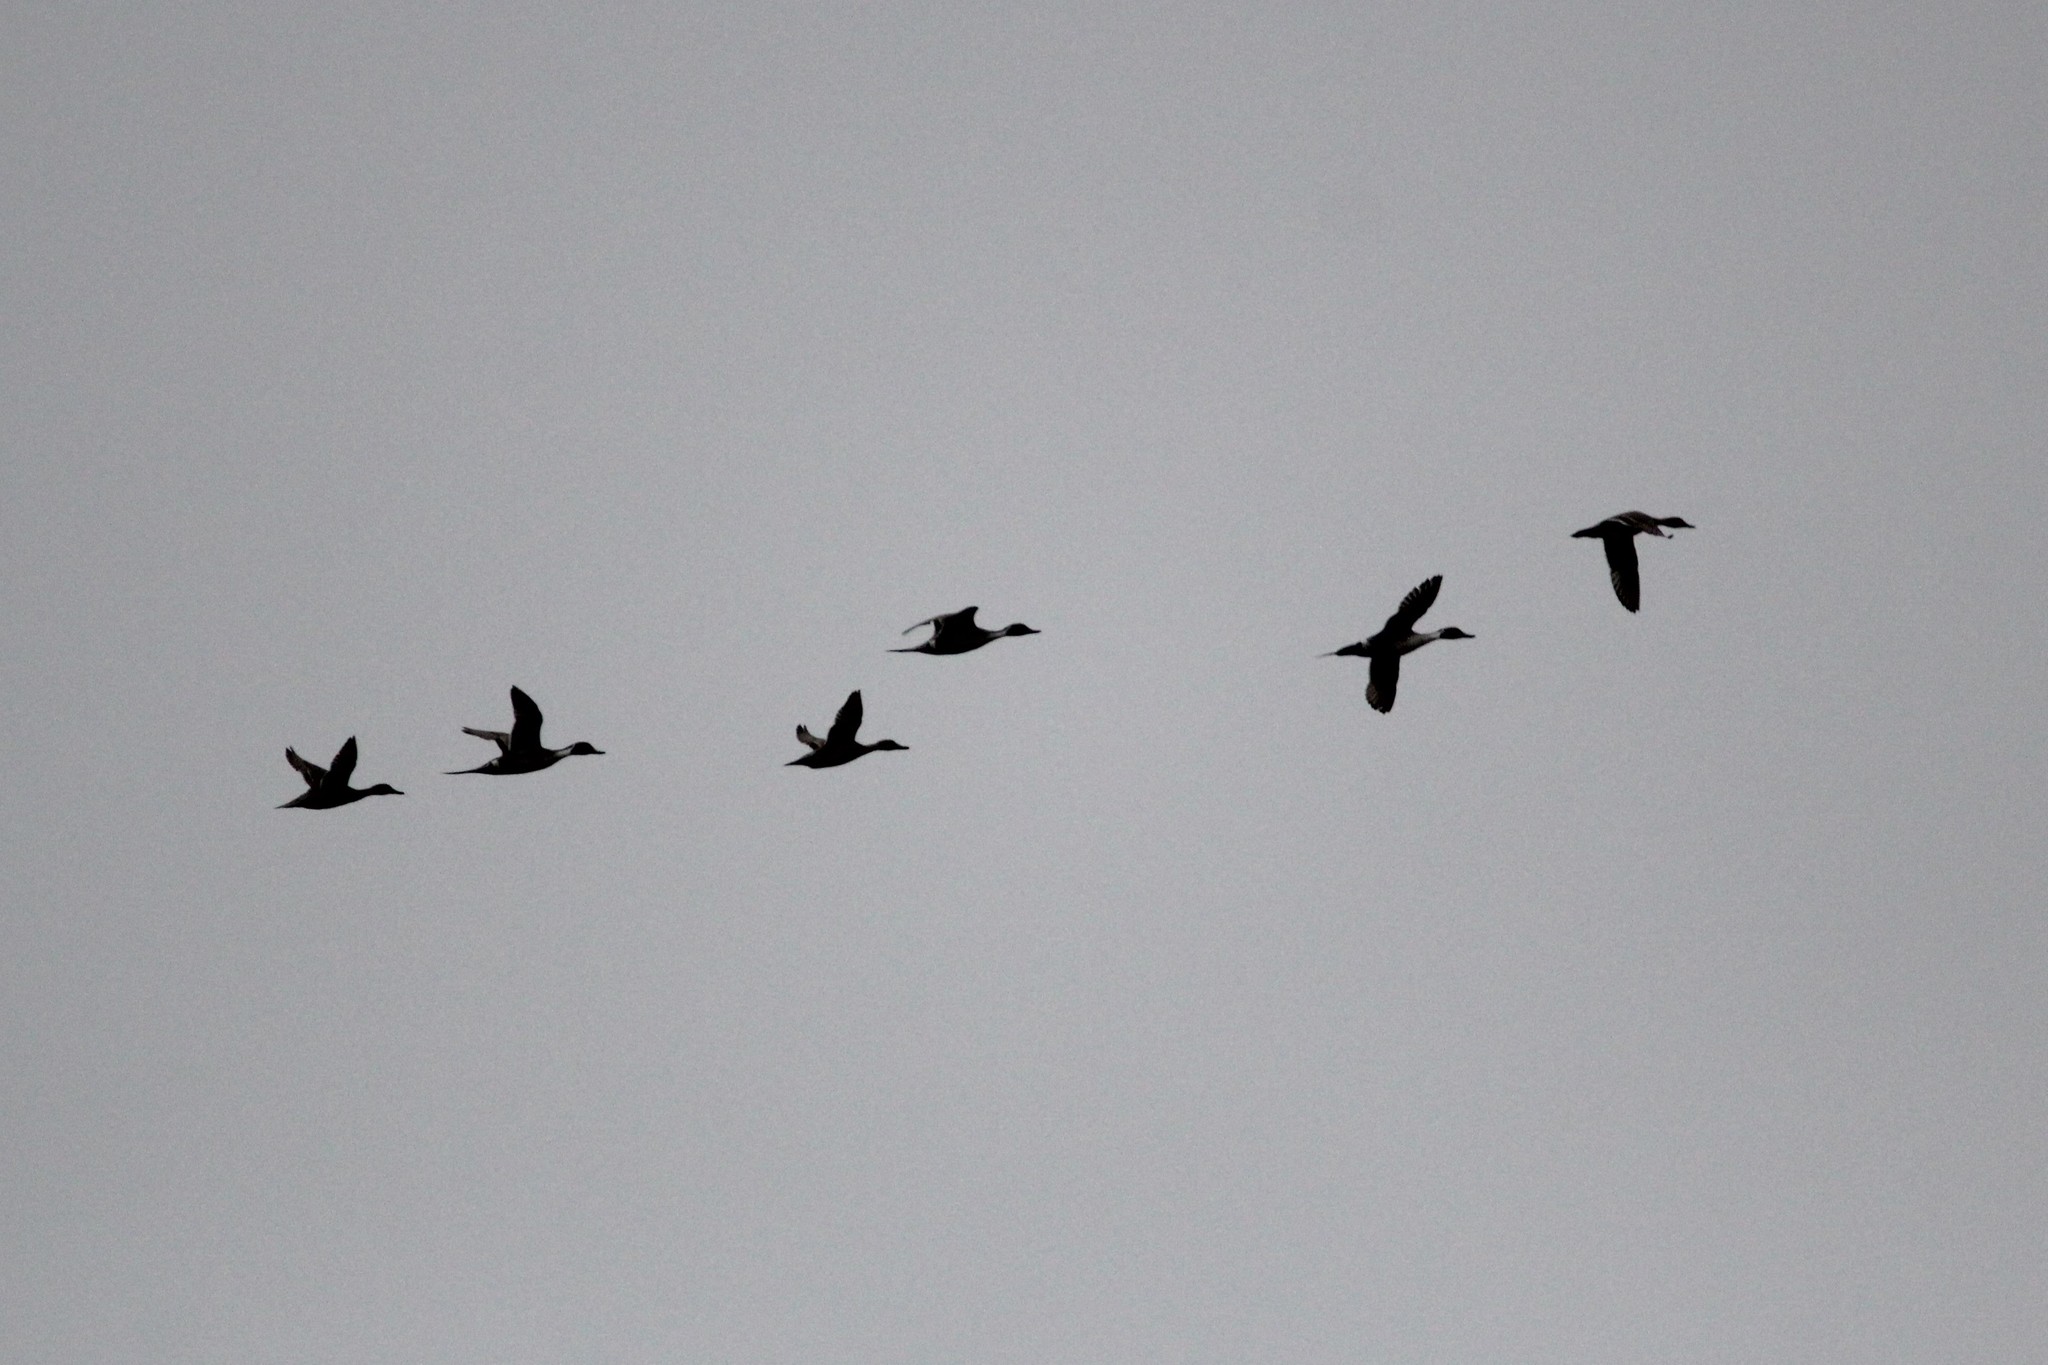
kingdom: Animalia
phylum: Chordata
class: Aves
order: Anseriformes
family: Anatidae
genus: Anas
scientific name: Anas acuta
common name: Northern pintail
